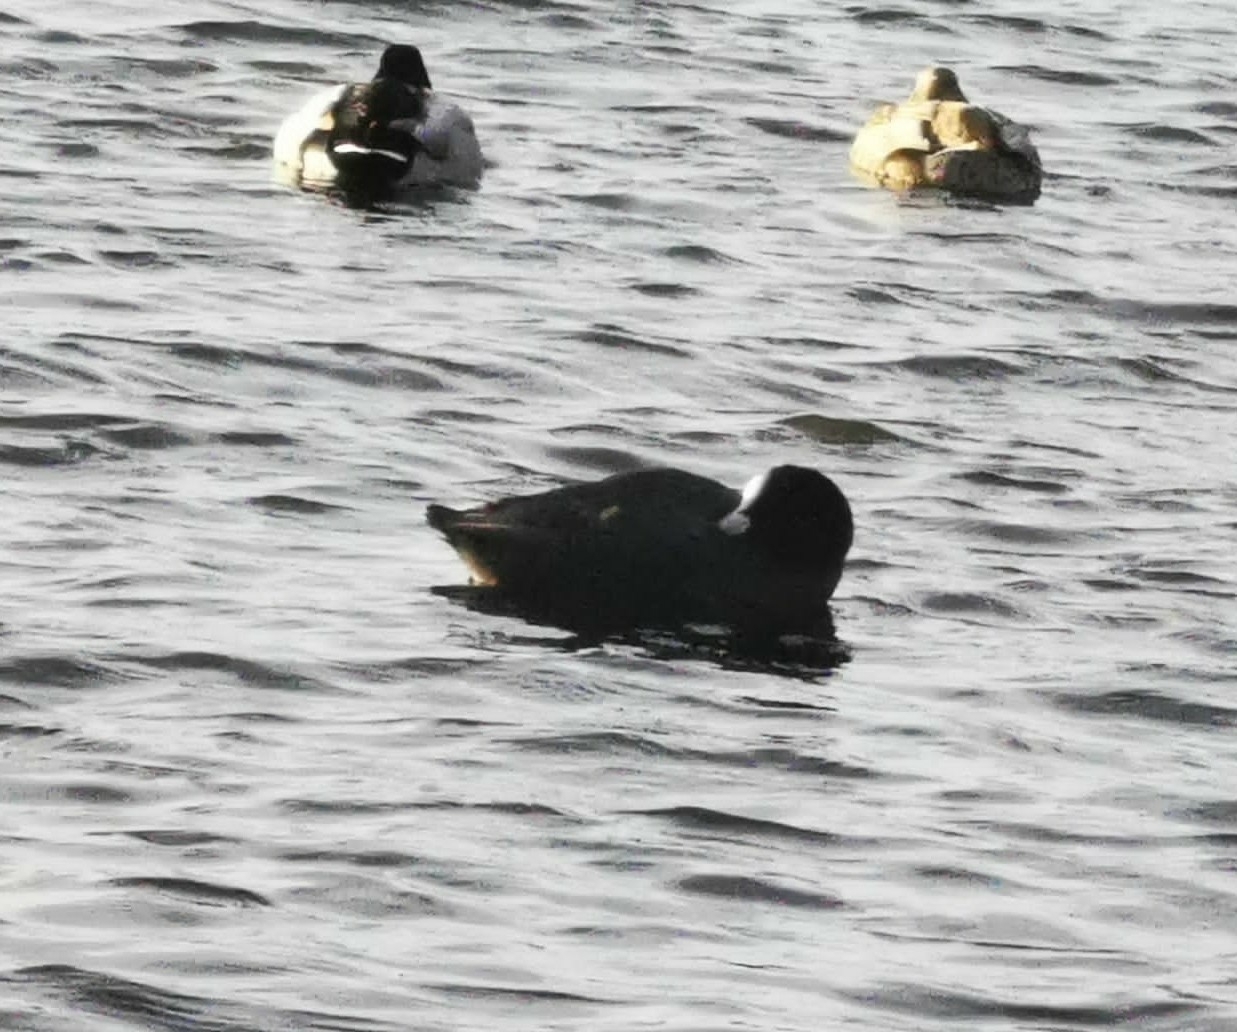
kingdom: Animalia
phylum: Chordata
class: Aves
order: Gruiformes
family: Rallidae
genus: Fulica
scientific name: Fulica atra
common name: Eurasian coot
